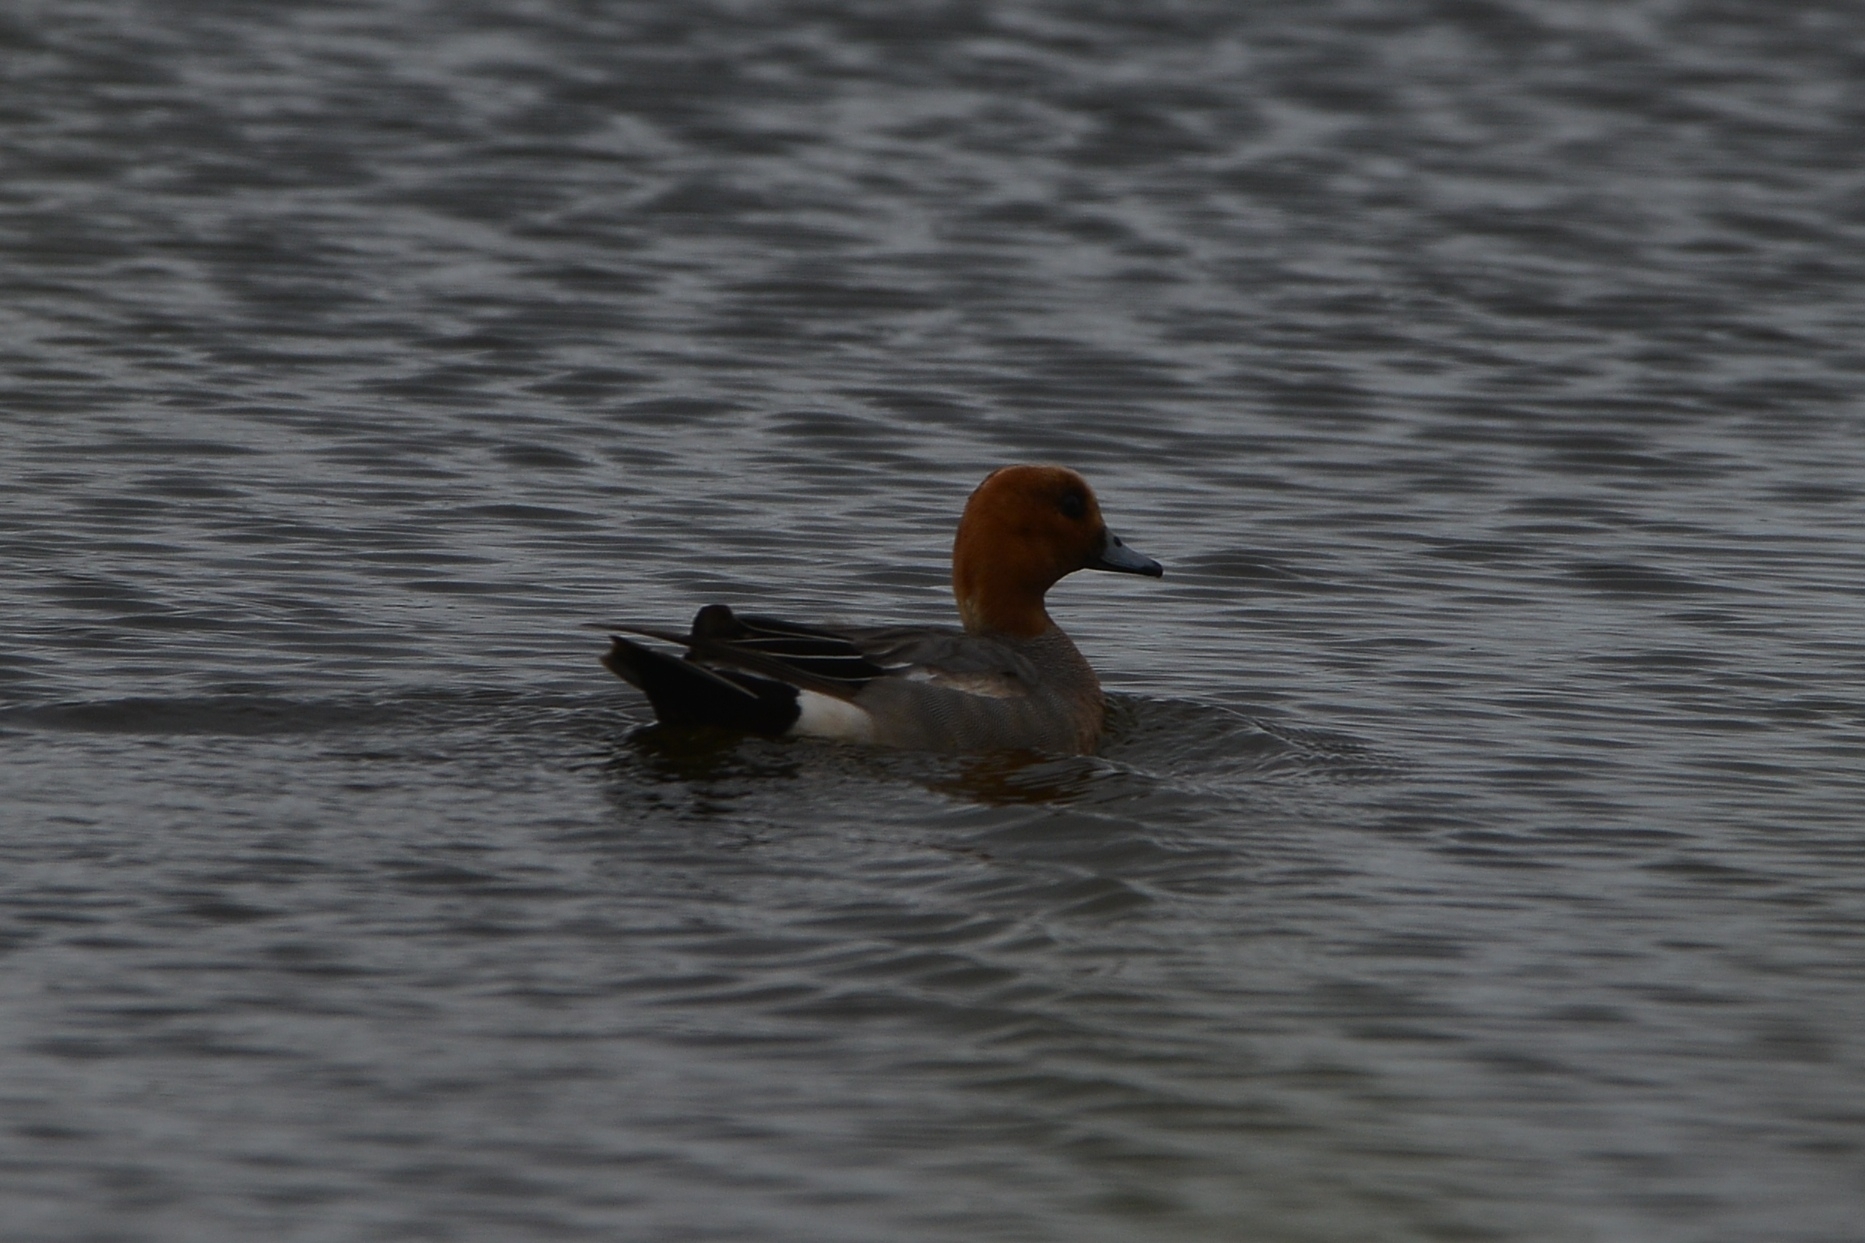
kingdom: Animalia
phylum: Chordata
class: Aves
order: Anseriformes
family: Anatidae
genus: Mareca
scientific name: Mareca penelope
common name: Eurasian wigeon
